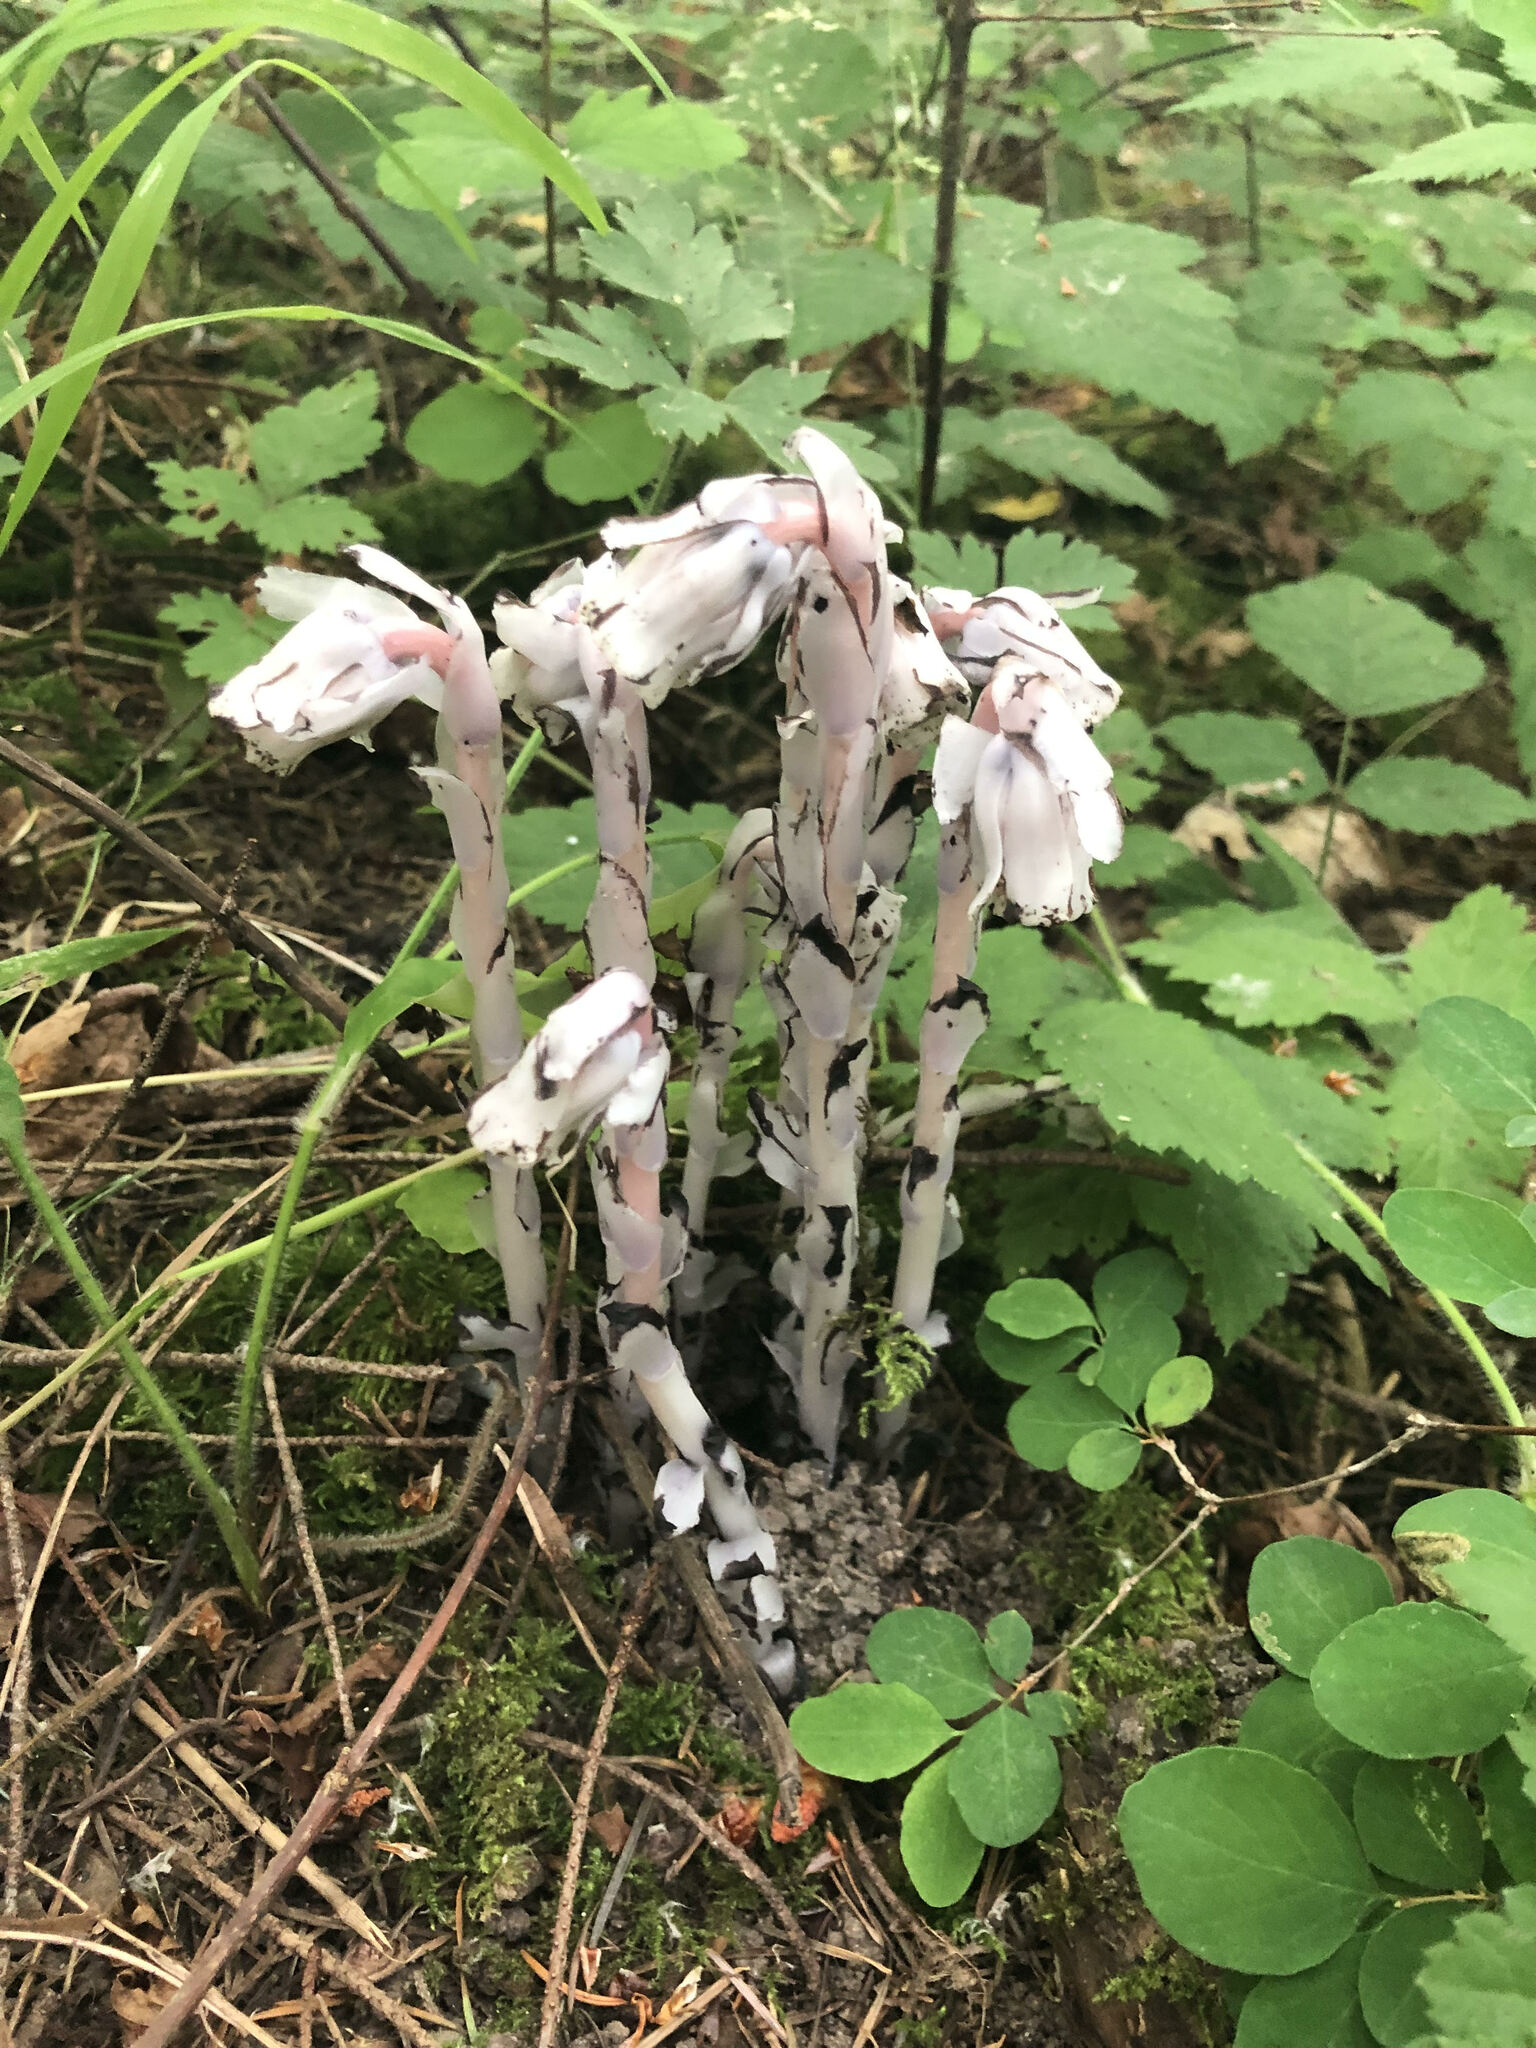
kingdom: Plantae
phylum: Tracheophyta
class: Magnoliopsida
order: Ericales
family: Ericaceae
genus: Monotropa
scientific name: Monotropa uniflora
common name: Convulsion root
